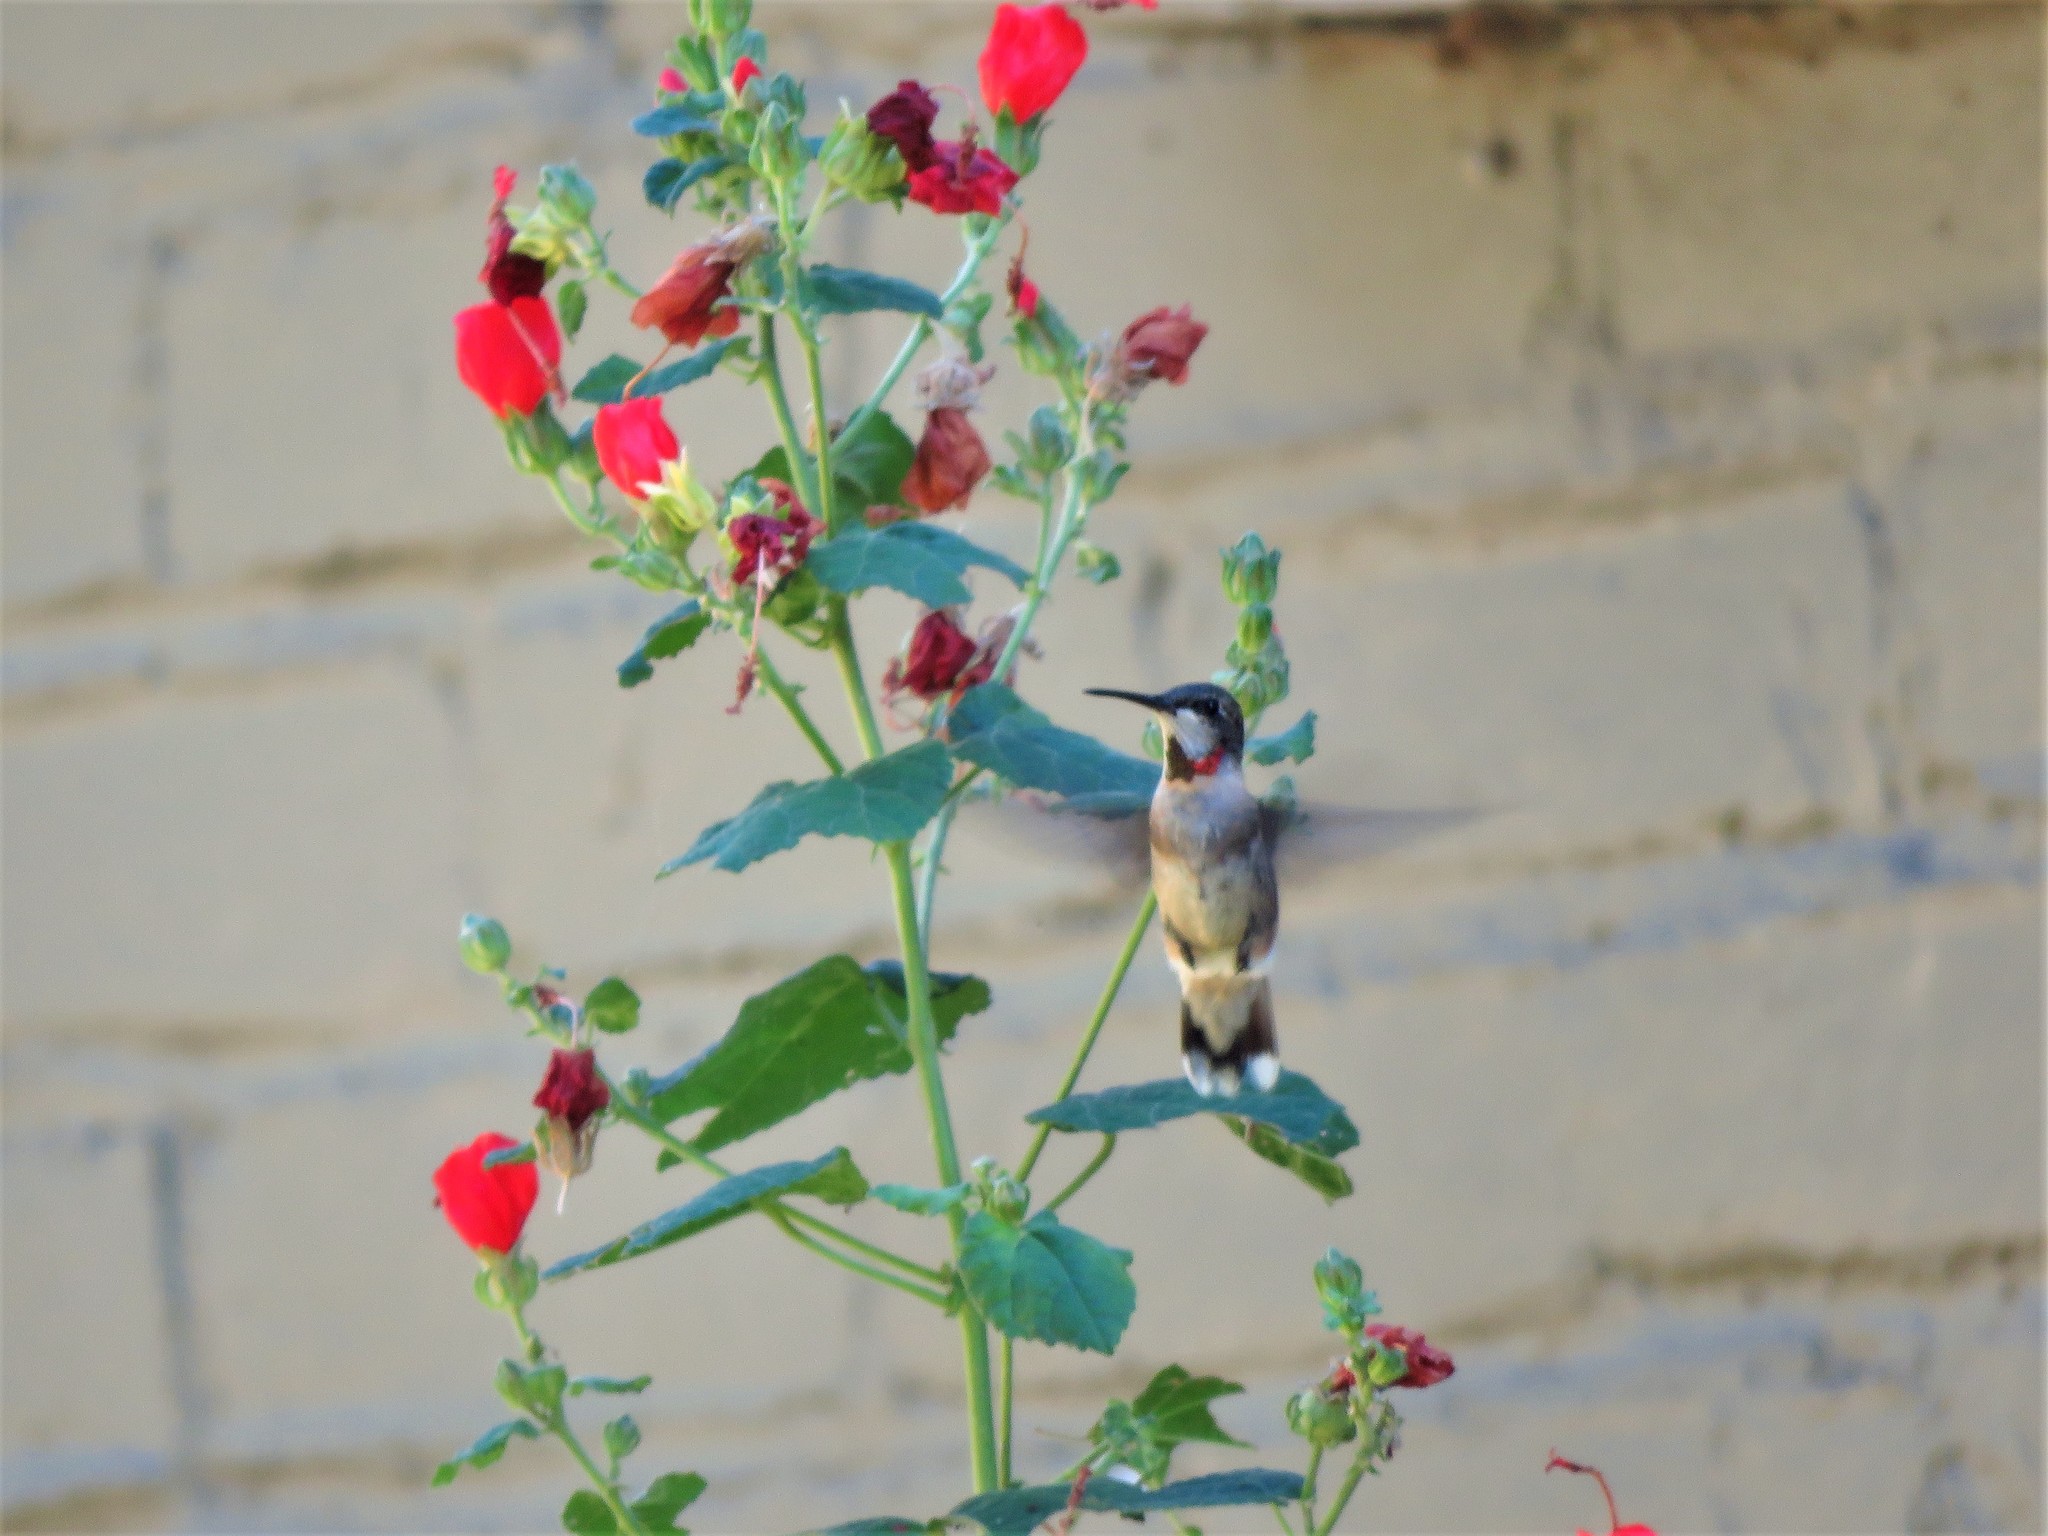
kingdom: Animalia
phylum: Chordata
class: Aves
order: Apodiformes
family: Trochilidae
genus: Archilochus
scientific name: Archilochus colubris
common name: Ruby-throated hummingbird
